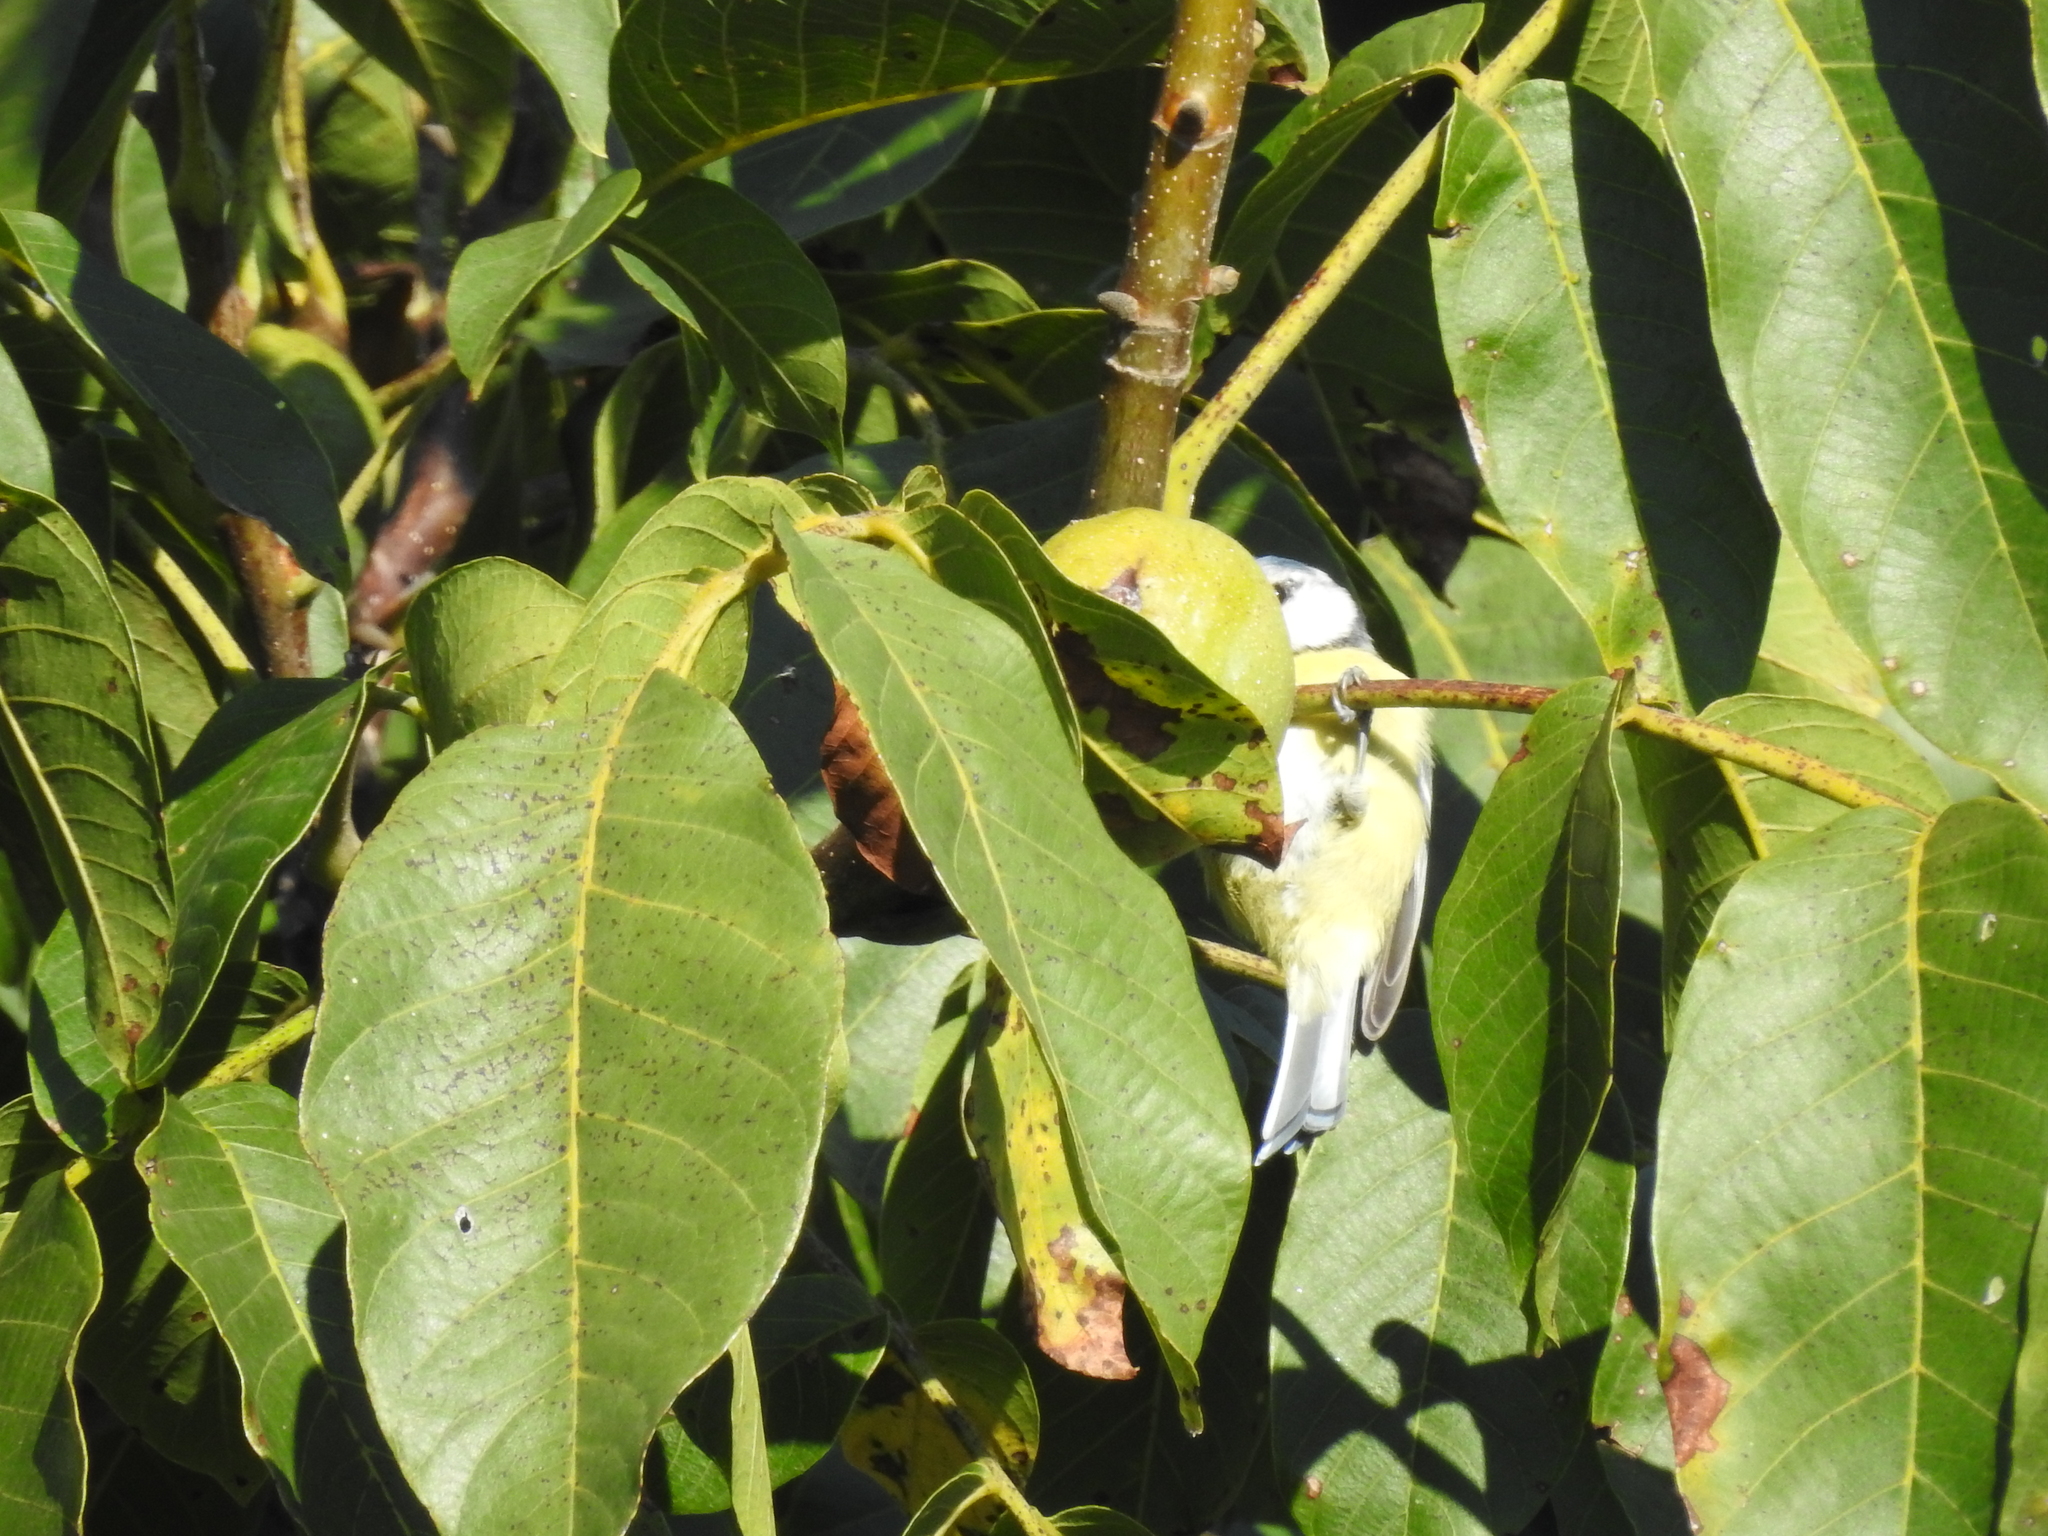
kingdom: Animalia
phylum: Chordata
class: Aves
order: Passeriformes
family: Paridae
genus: Cyanistes
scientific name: Cyanistes caeruleus
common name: Eurasian blue tit
